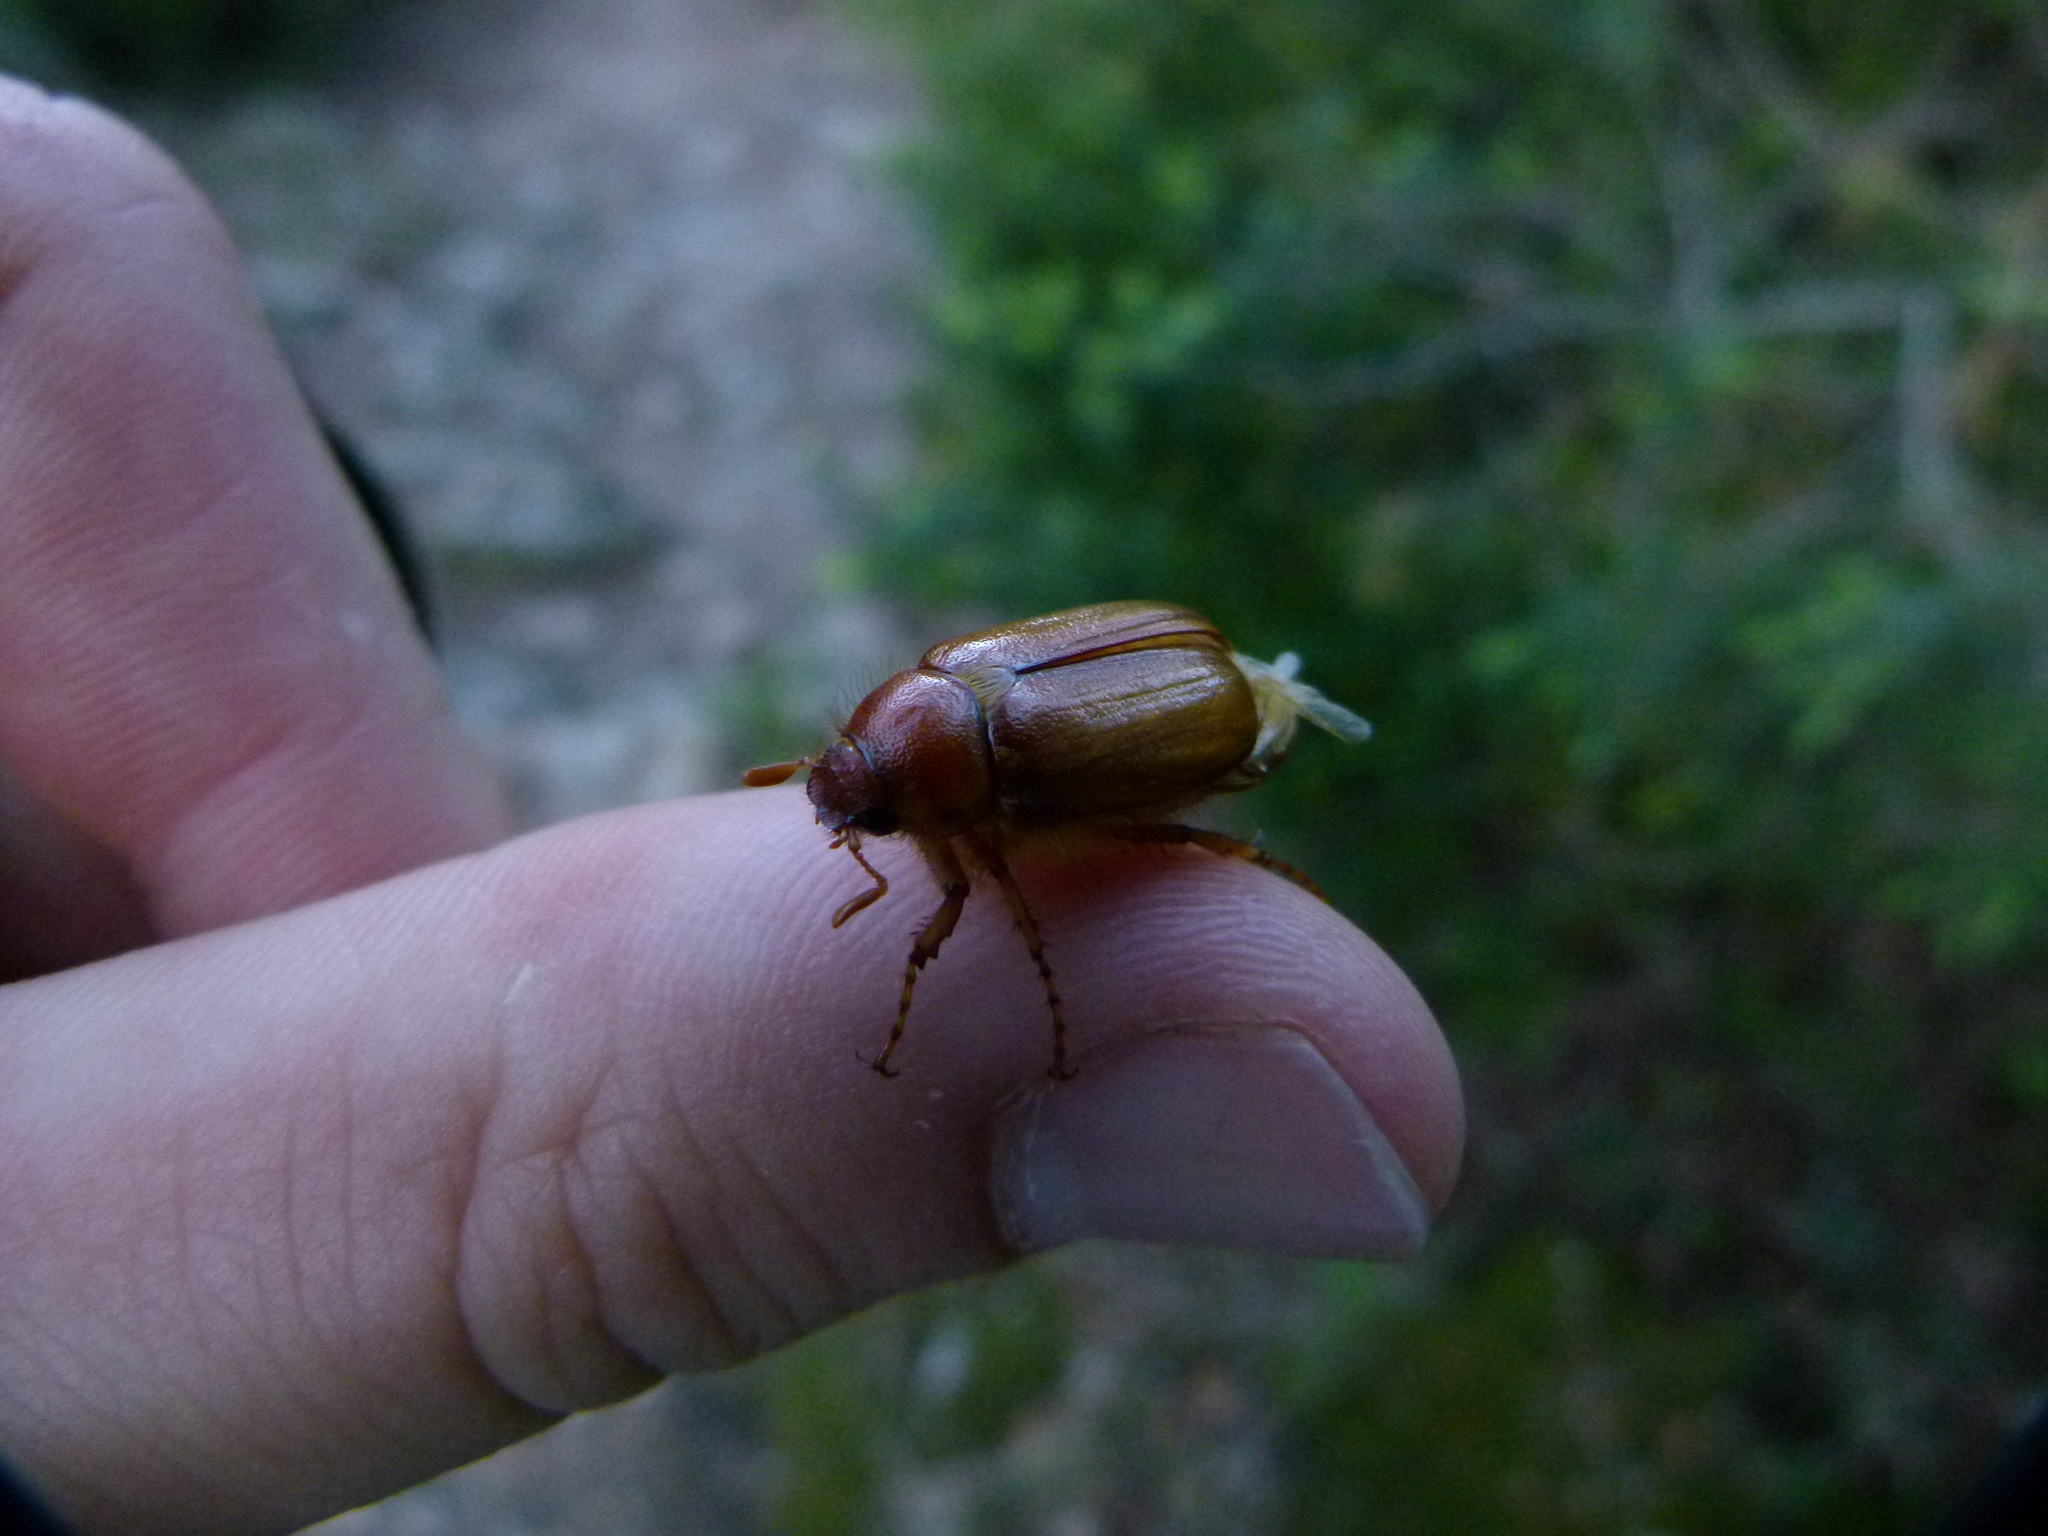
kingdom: Animalia
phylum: Arthropoda
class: Insecta
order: Coleoptera
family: Scarabaeidae
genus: Amphimallon
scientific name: Amphimallon solstitiale
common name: Summer chafer
